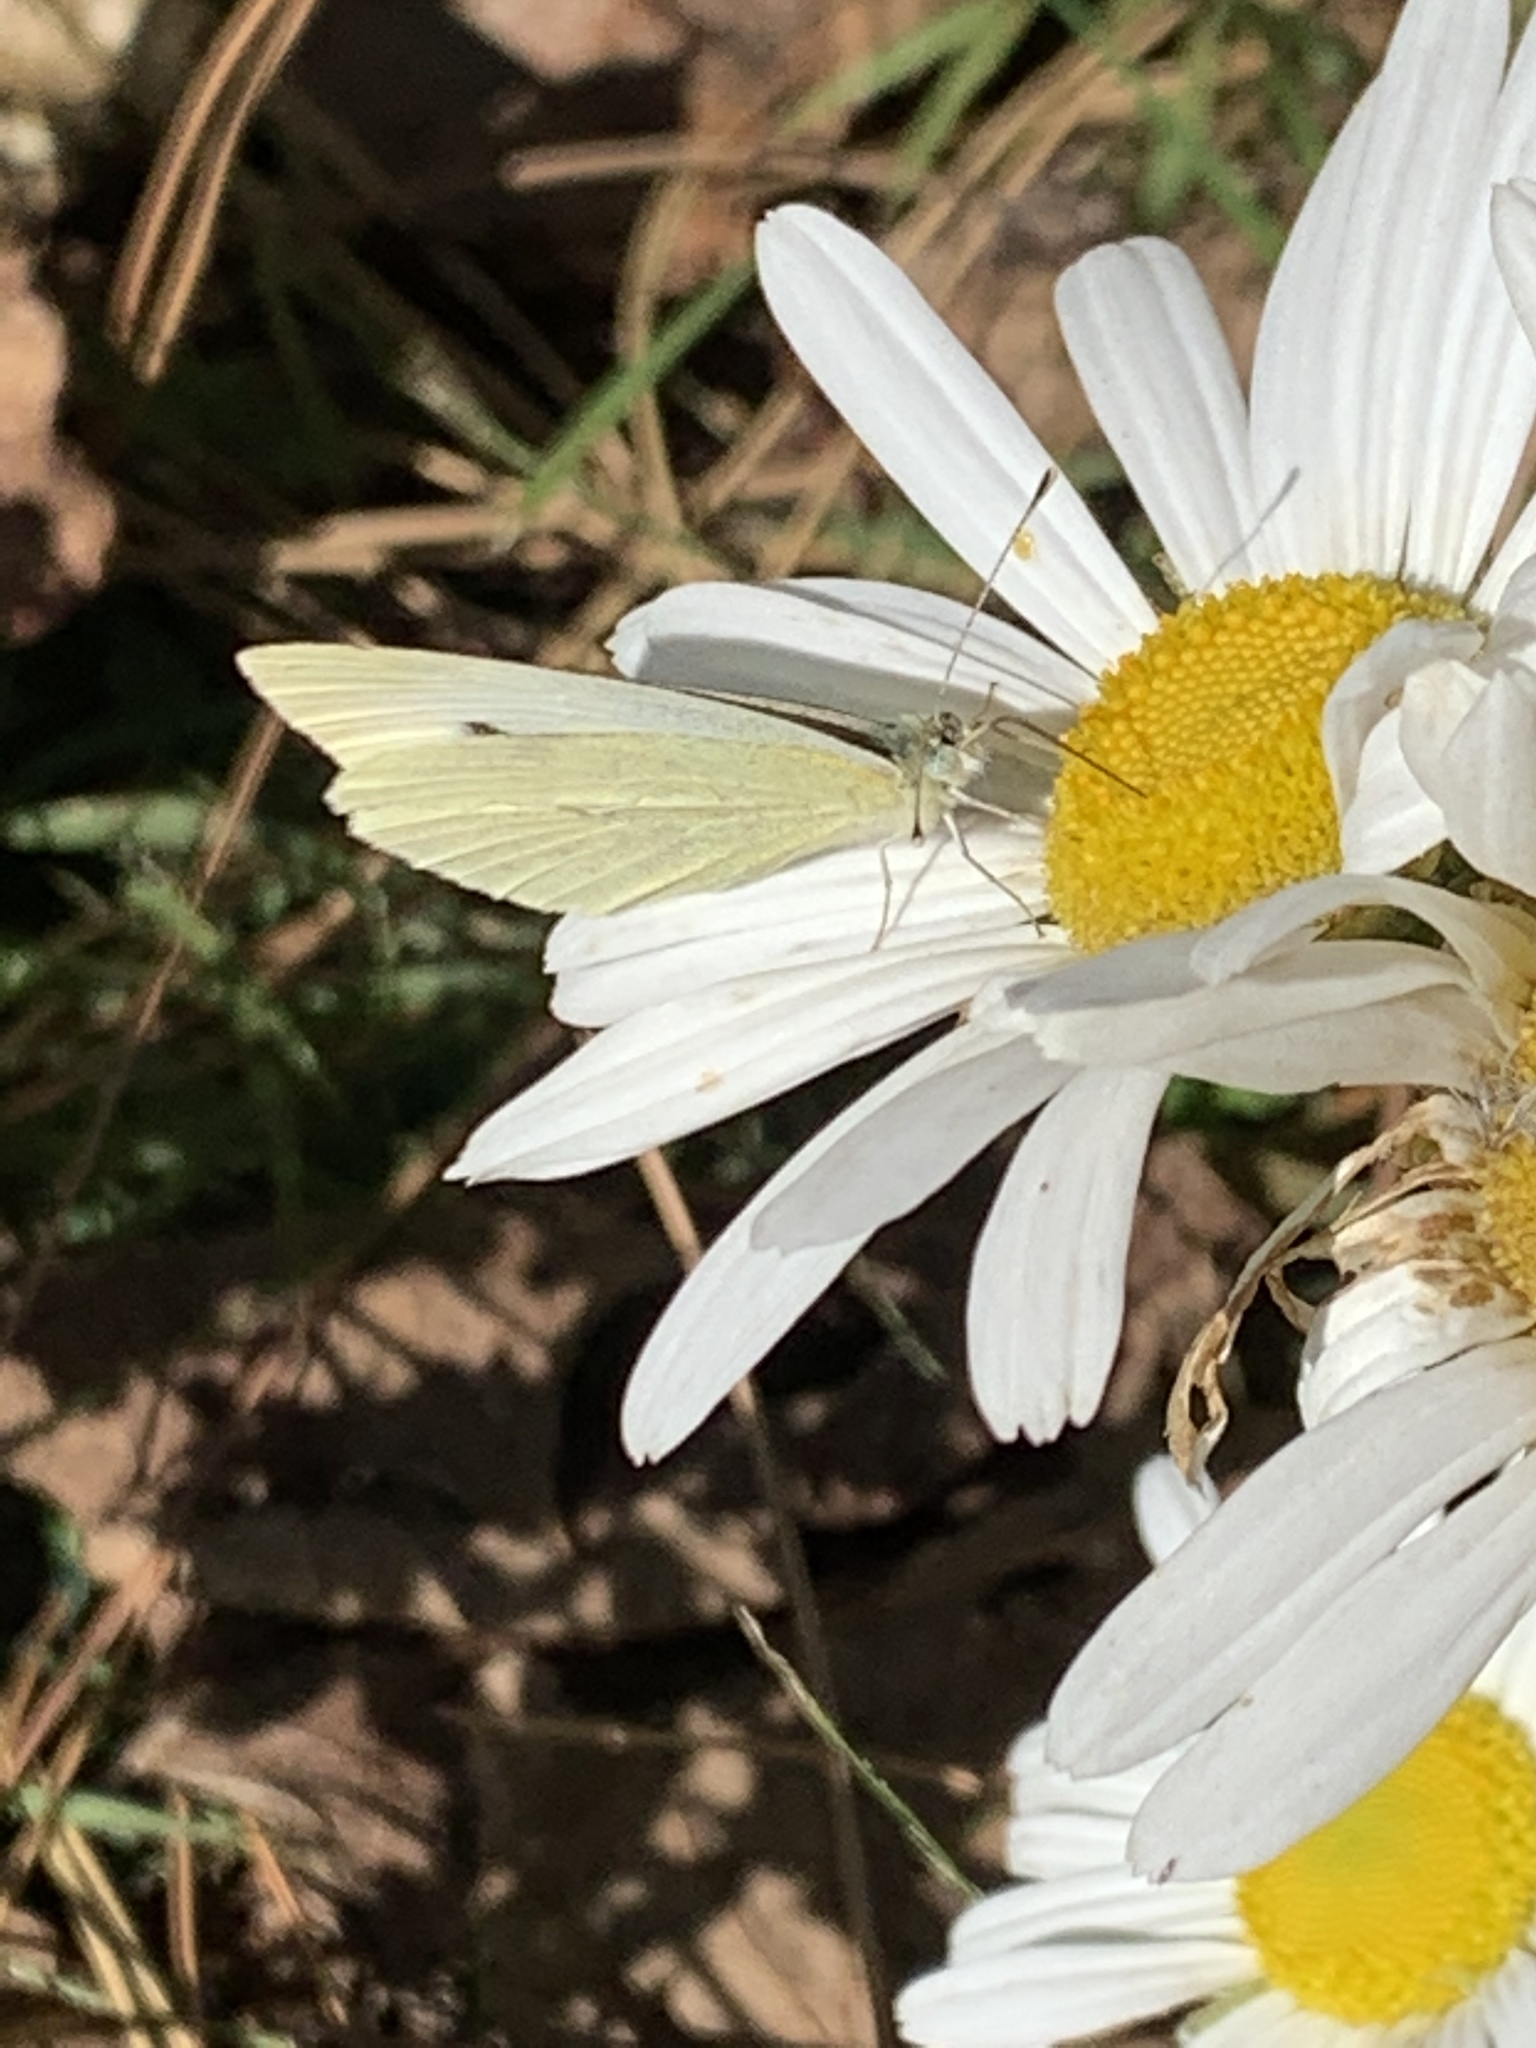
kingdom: Animalia
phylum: Arthropoda
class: Insecta
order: Lepidoptera
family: Pieridae
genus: Pieris
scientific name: Pieris rapae
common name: Small white
